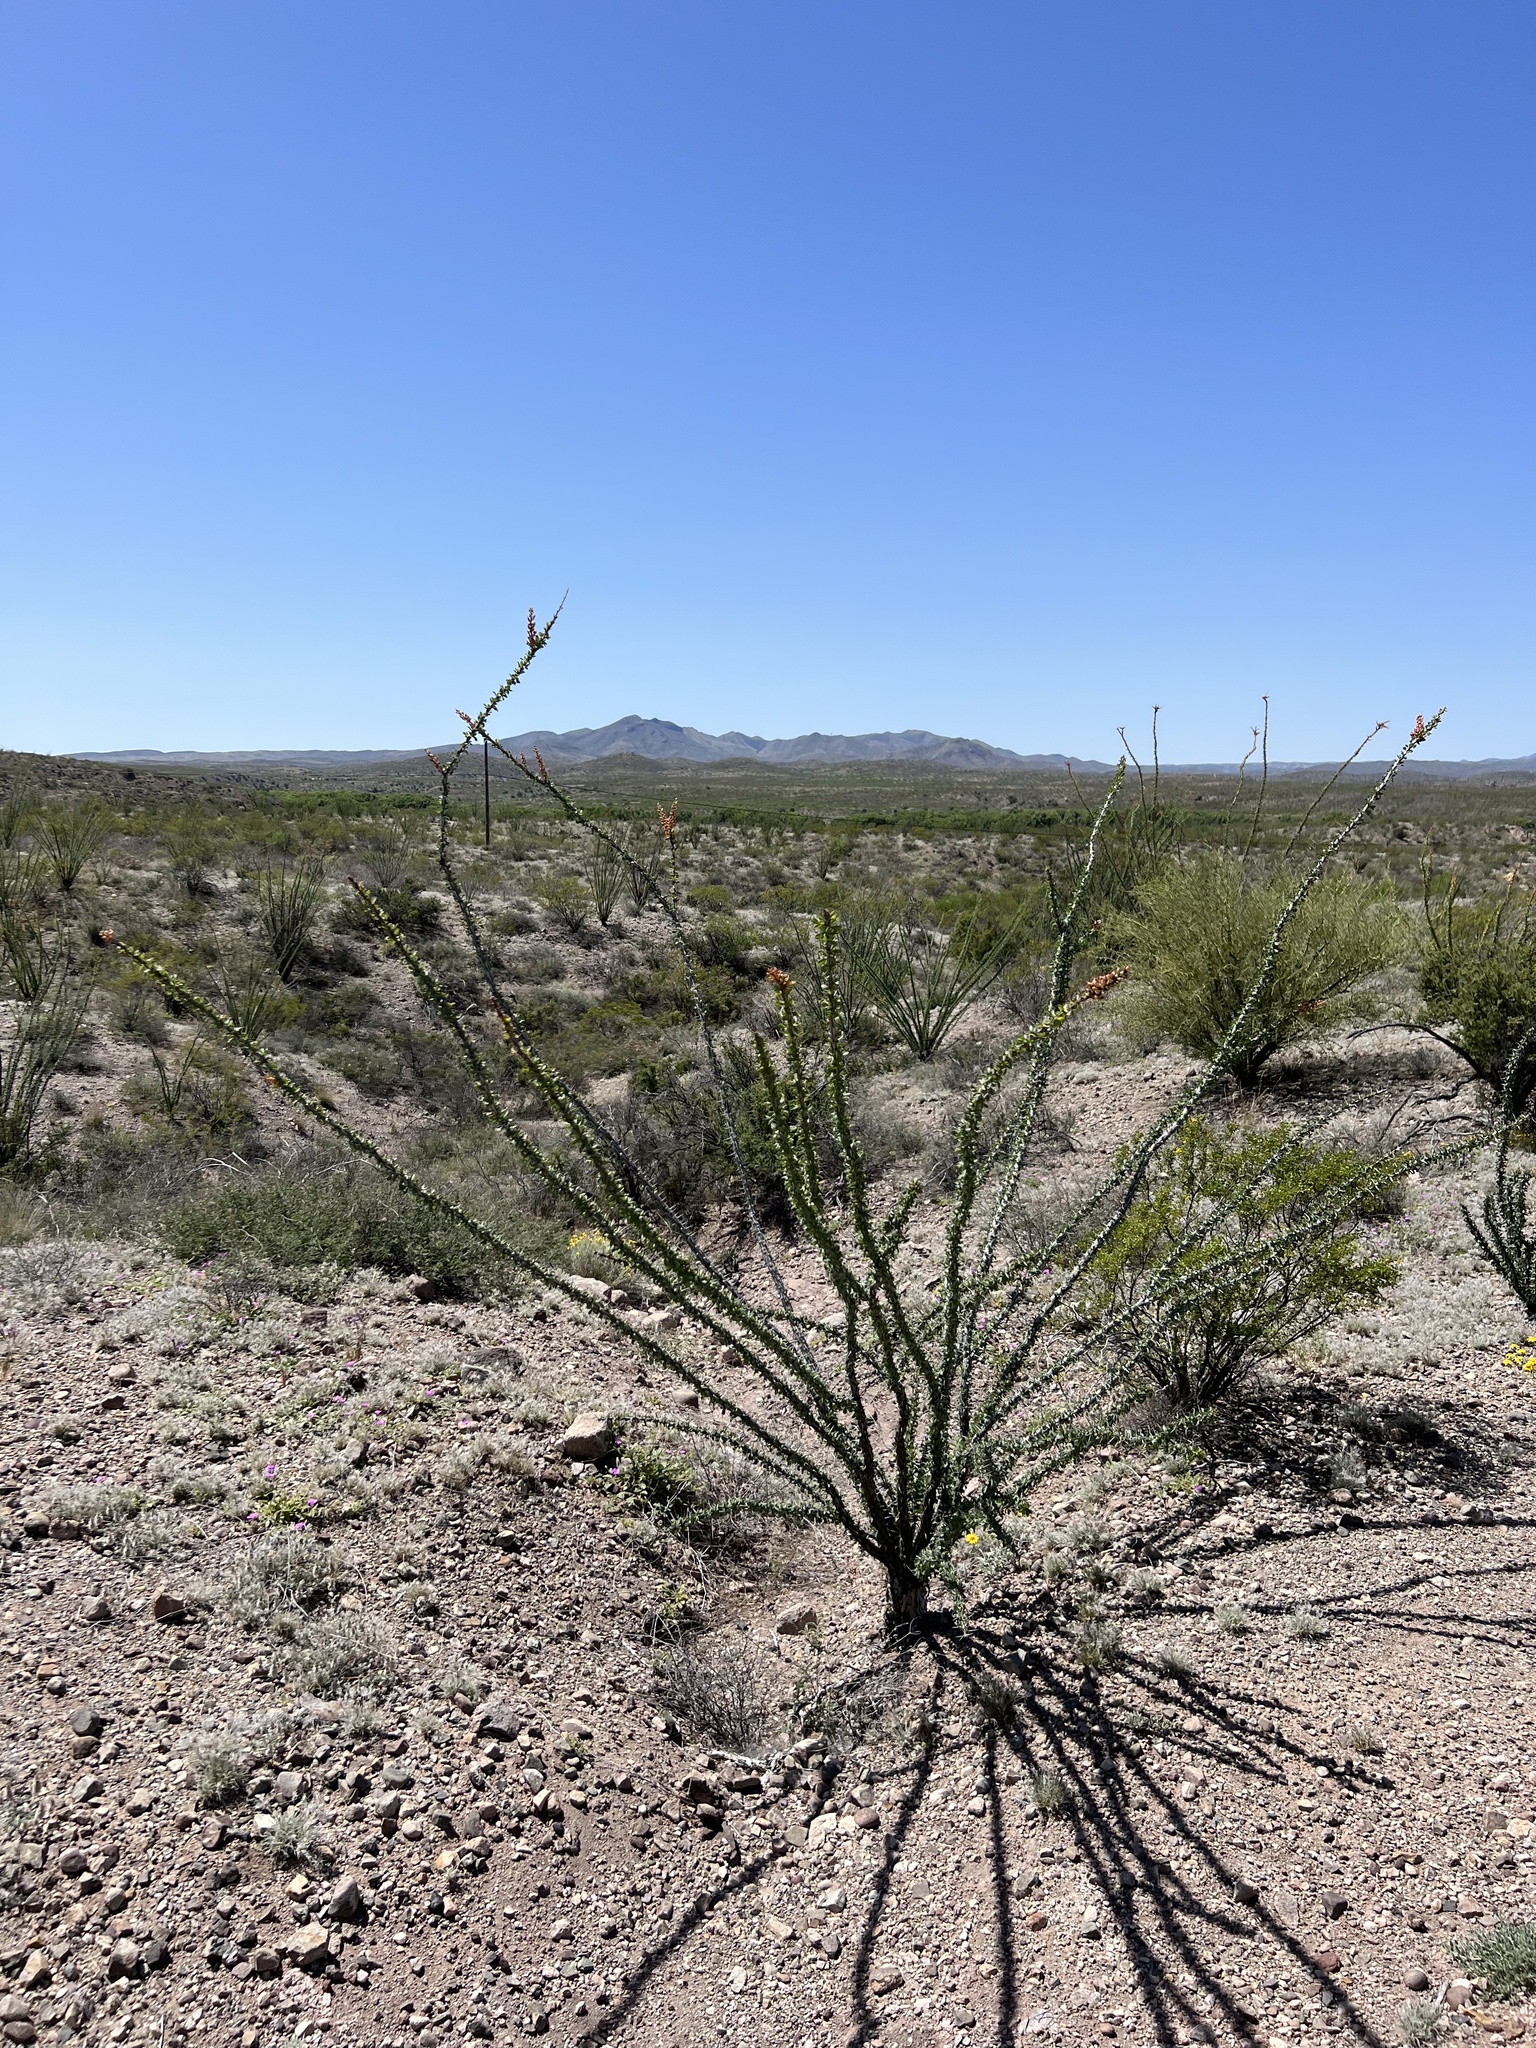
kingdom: Plantae
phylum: Tracheophyta
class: Magnoliopsida
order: Ericales
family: Fouquieriaceae
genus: Fouquieria
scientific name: Fouquieria splendens
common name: Vine-cactus
